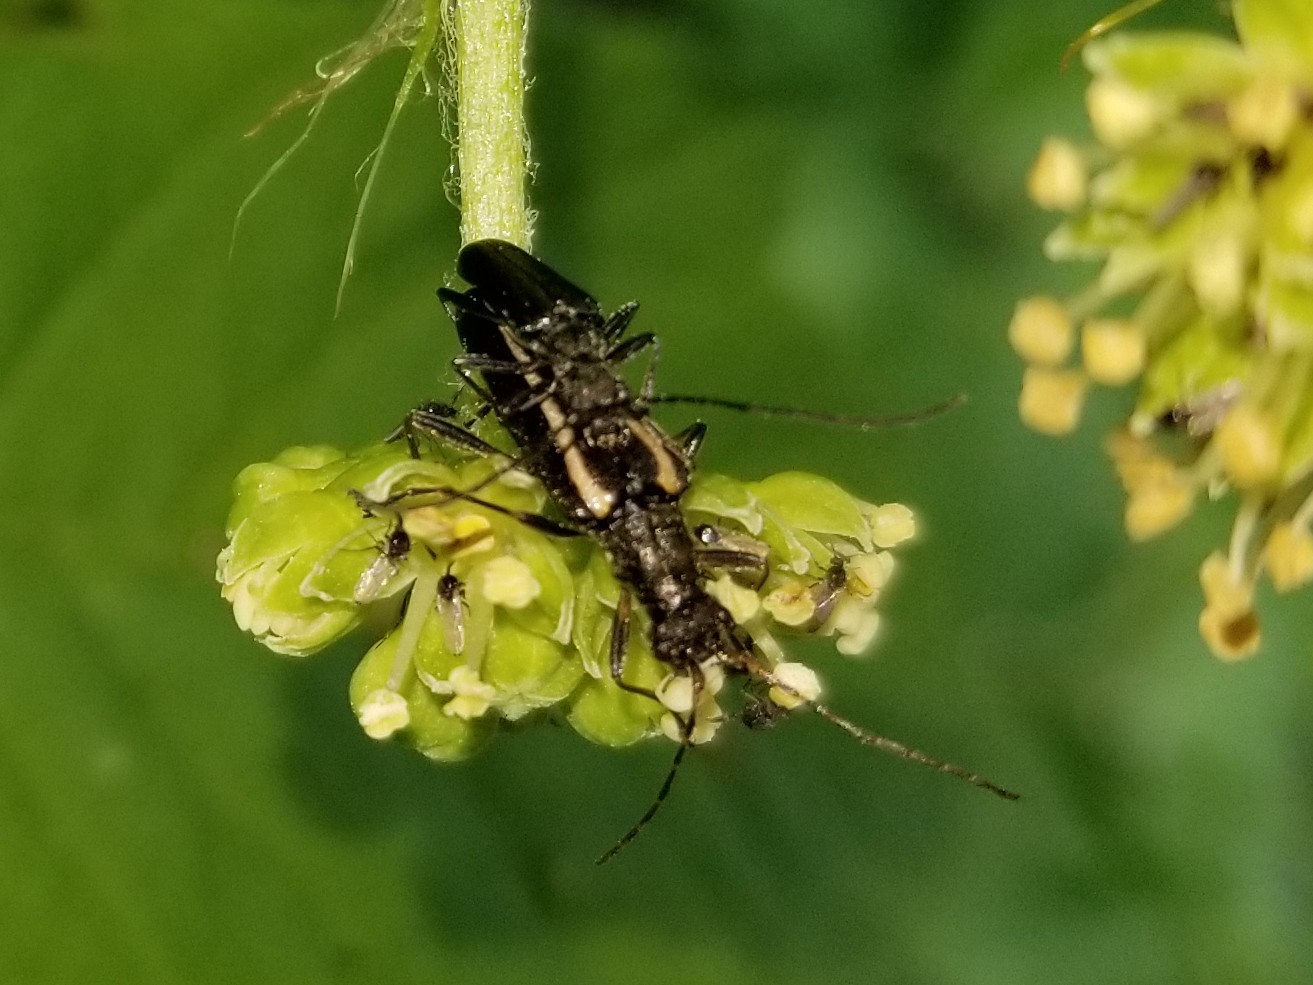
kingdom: Animalia
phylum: Arthropoda
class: Insecta
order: Coleoptera
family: Cerambycidae
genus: Leptalia
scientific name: Leptalia macilenta
